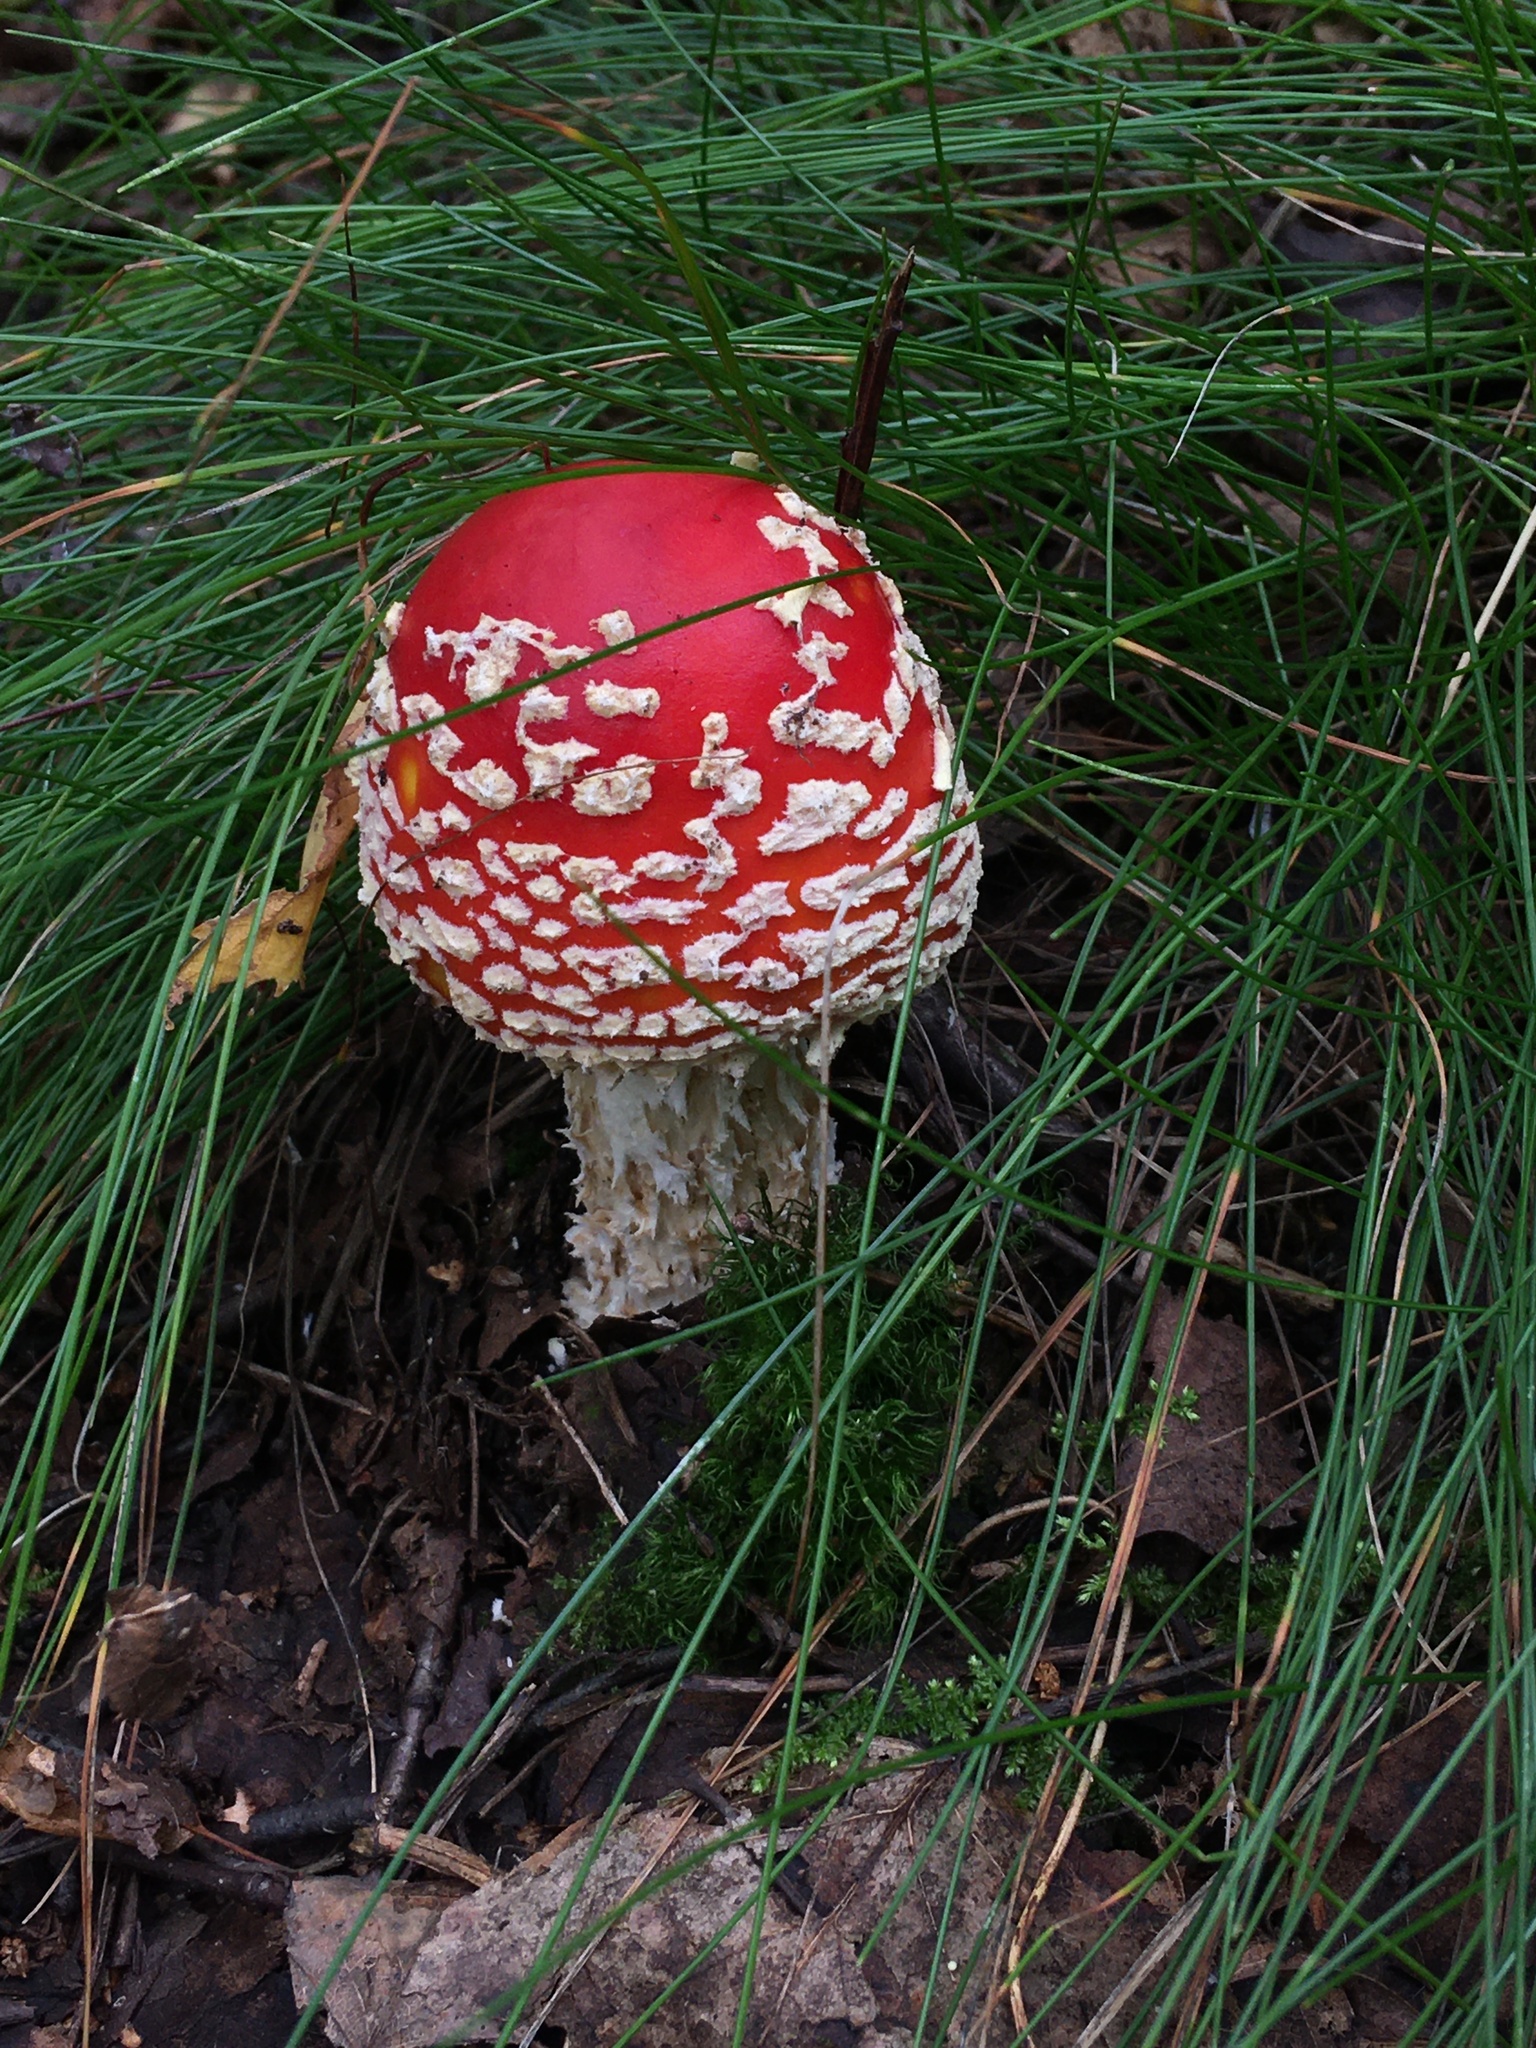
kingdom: Fungi
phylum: Basidiomycota
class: Agaricomycetes
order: Agaricales
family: Amanitaceae
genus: Amanita
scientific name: Amanita muscaria
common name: Fly agaric
